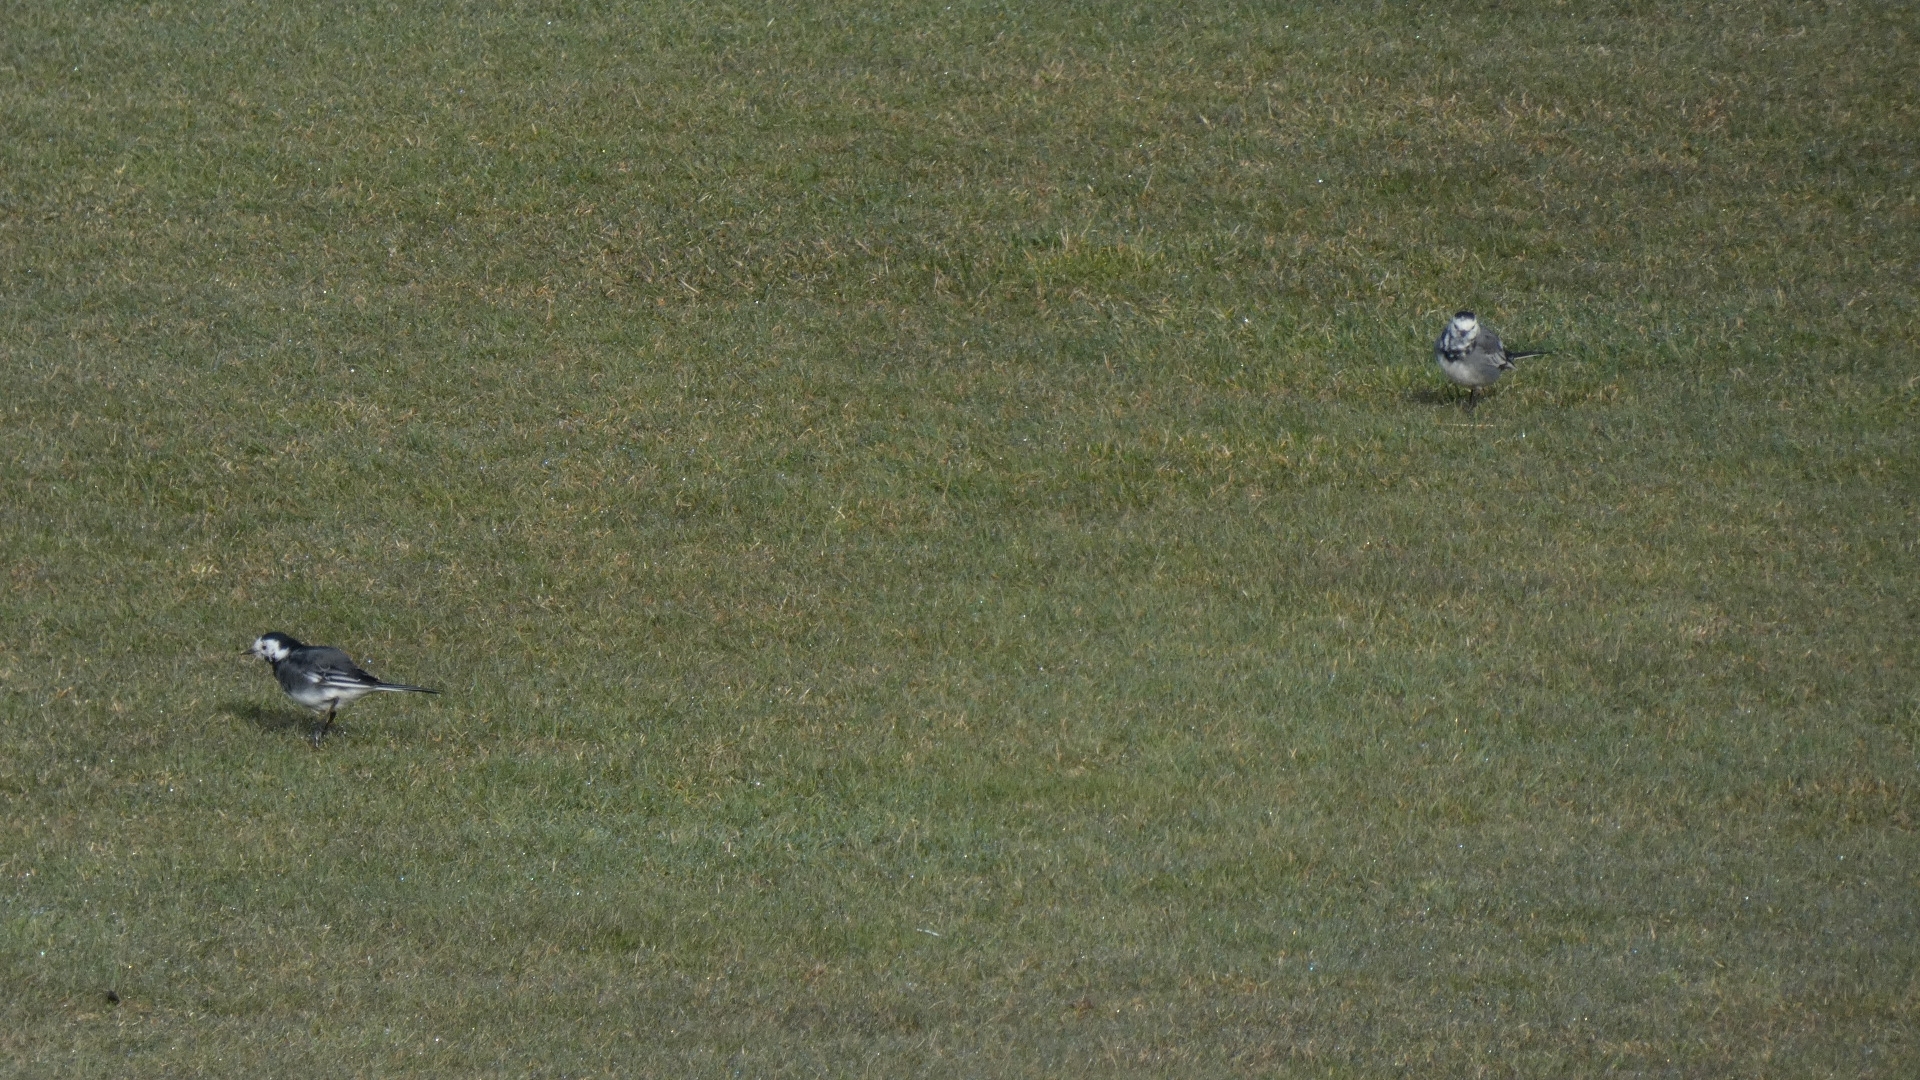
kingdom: Animalia
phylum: Chordata
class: Aves
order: Passeriformes
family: Motacillidae
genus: Motacilla
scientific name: Motacilla alba
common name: White wagtail
